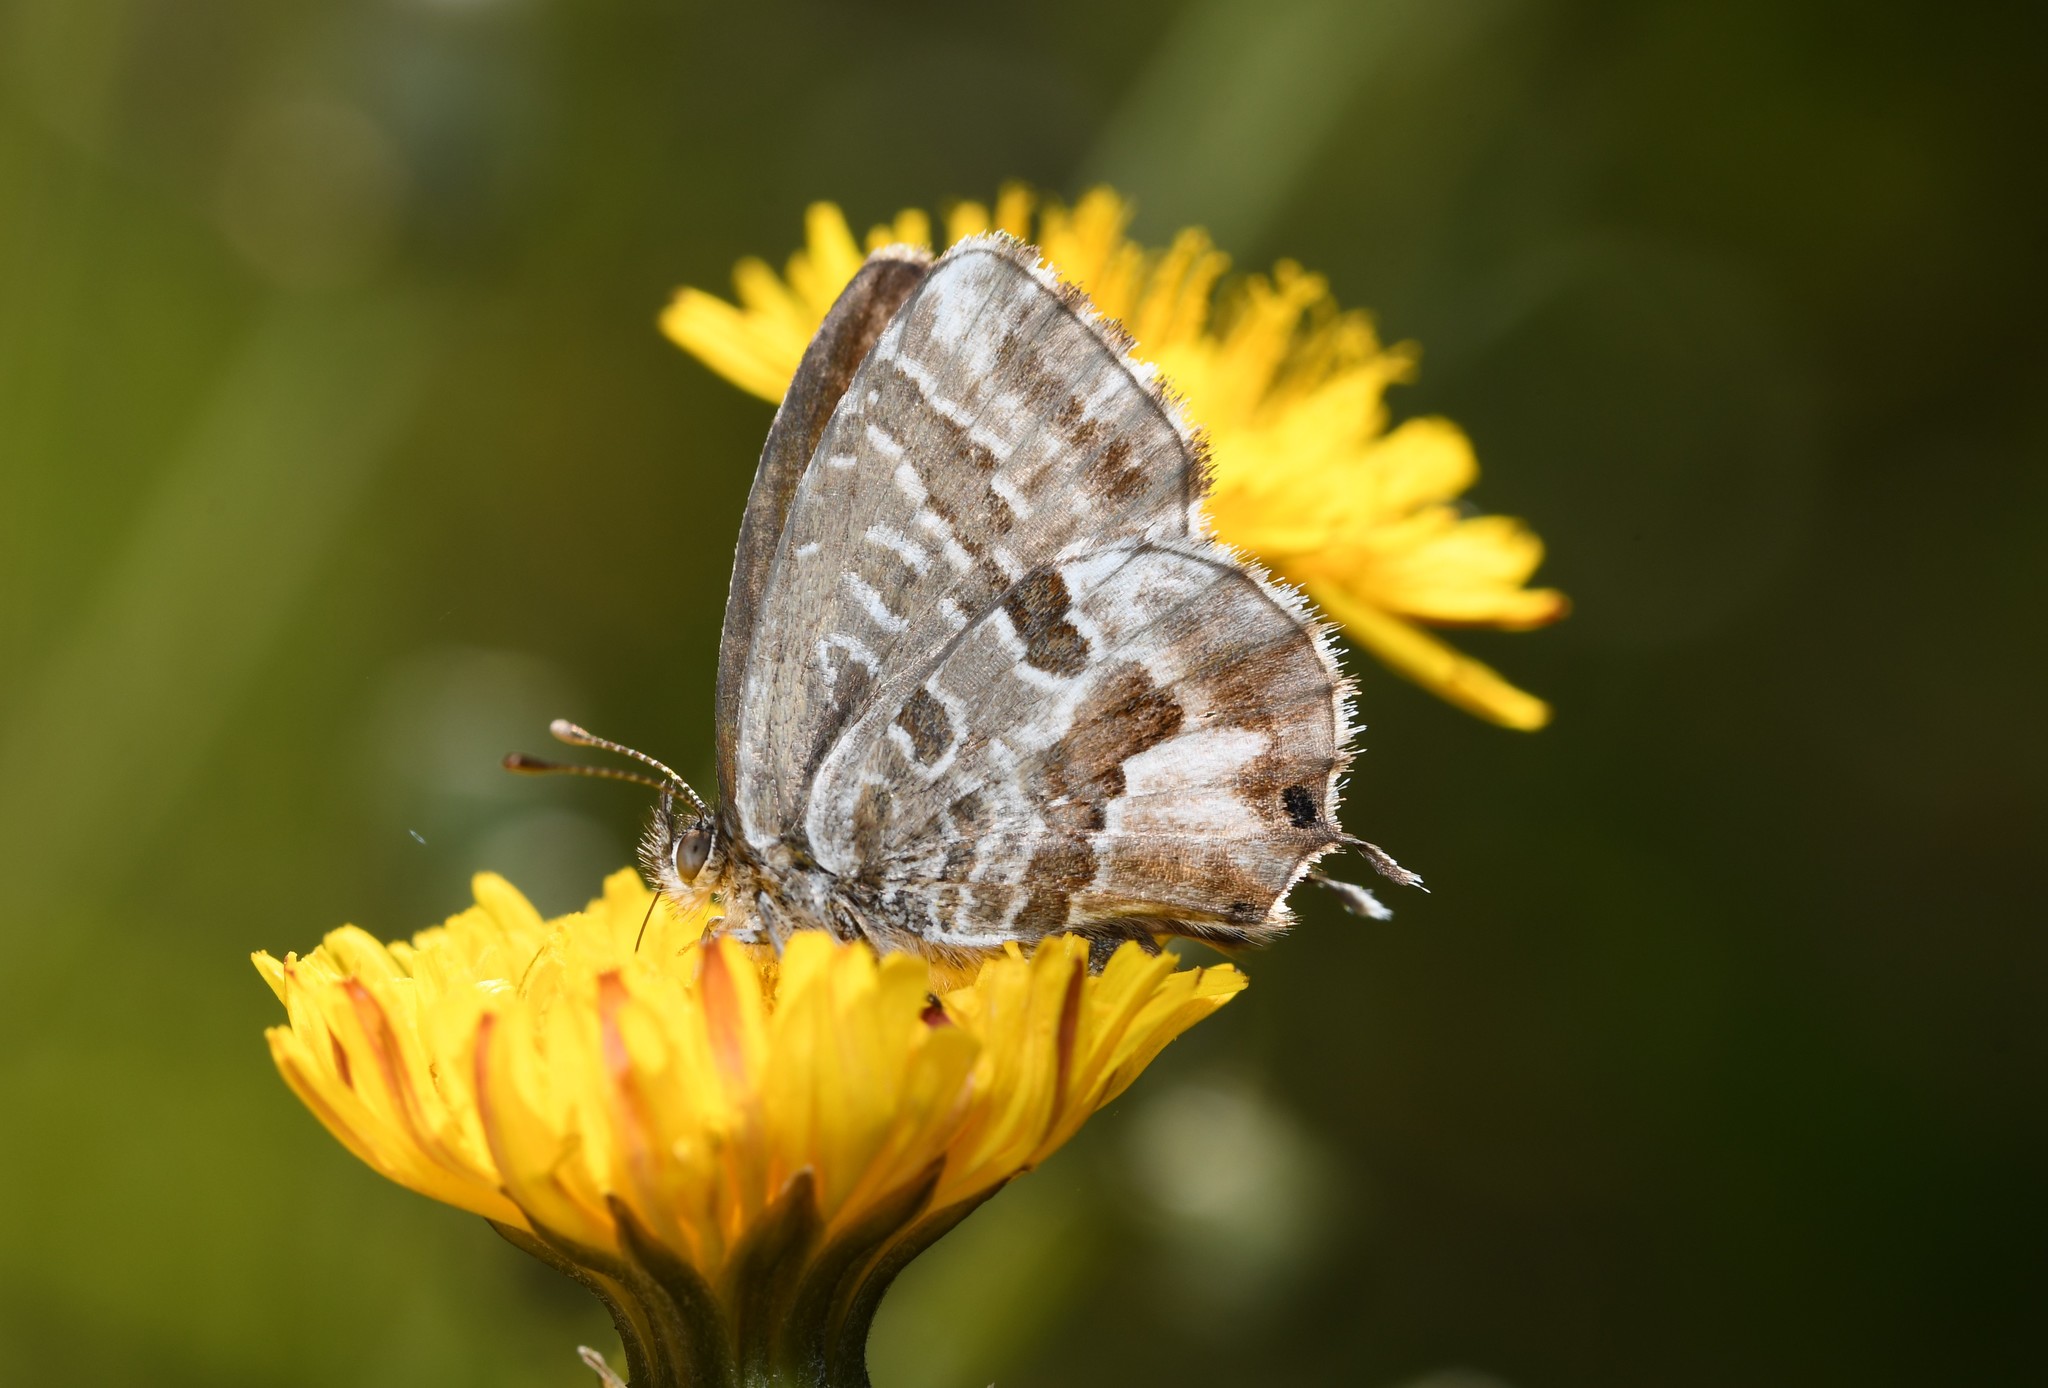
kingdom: Animalia
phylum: Arthropoda
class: Insecta
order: Lepidoptera
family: Lycaenidae
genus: Cacyreus
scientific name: Cacyreus marshalli
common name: Geranium bronze
